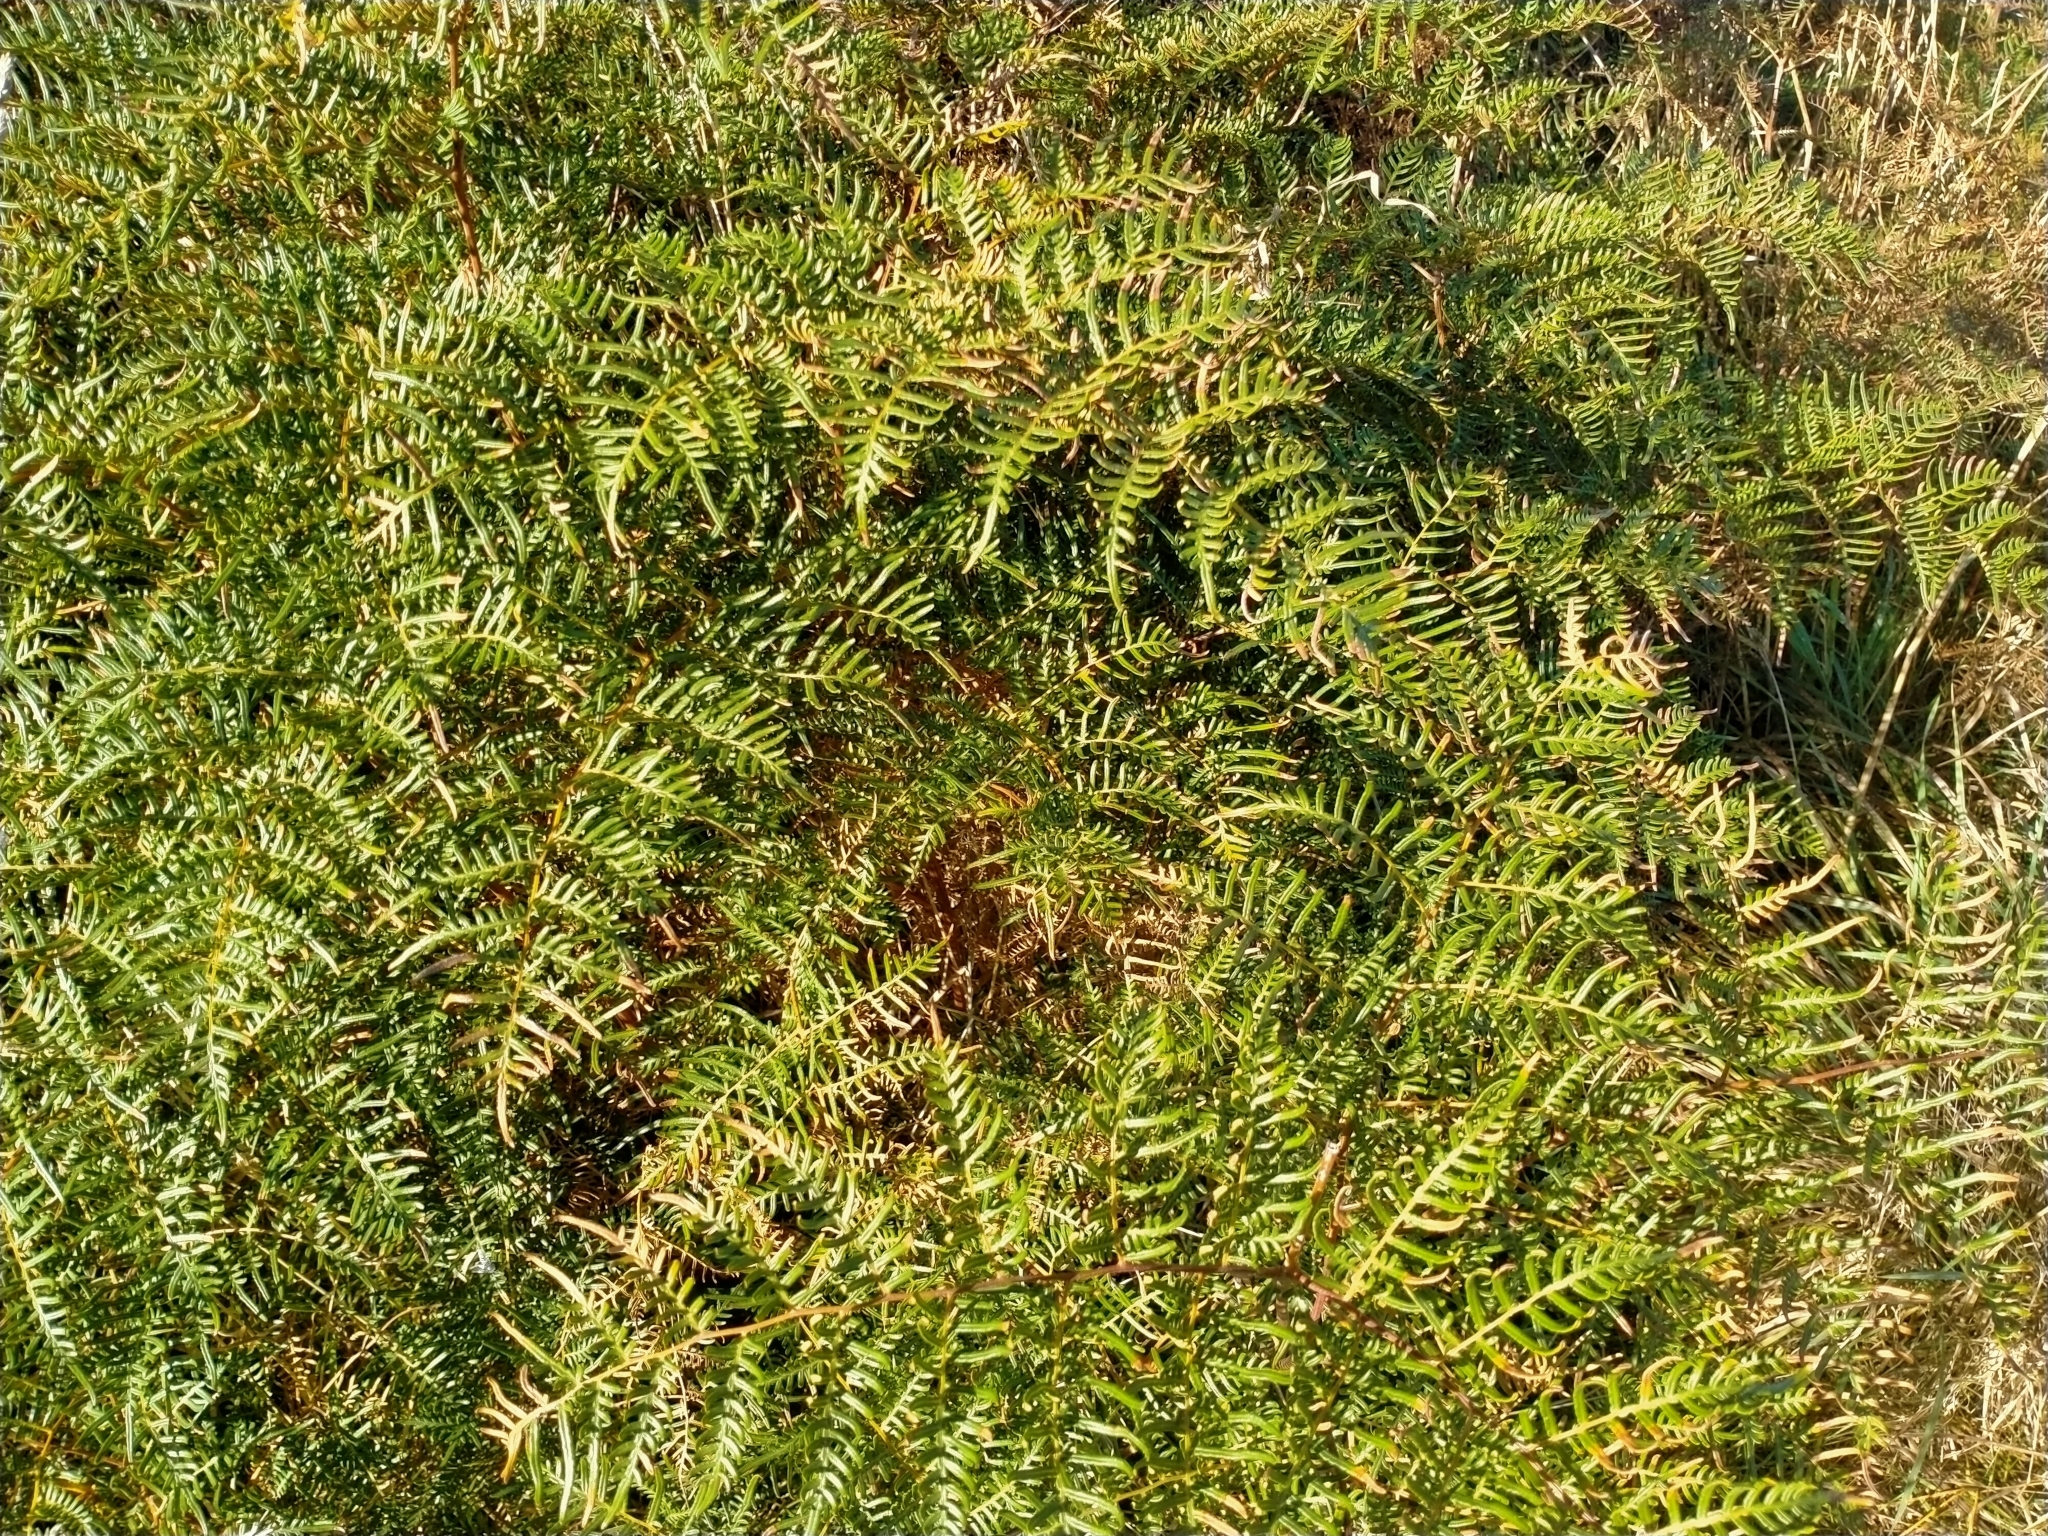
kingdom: Plantae
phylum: Tracheophyta
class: Polypodiopsida
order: Polypodiales
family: Dennstaedtiaceae
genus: Pteridium
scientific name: Pteridium esculentum
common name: Bracken fern
